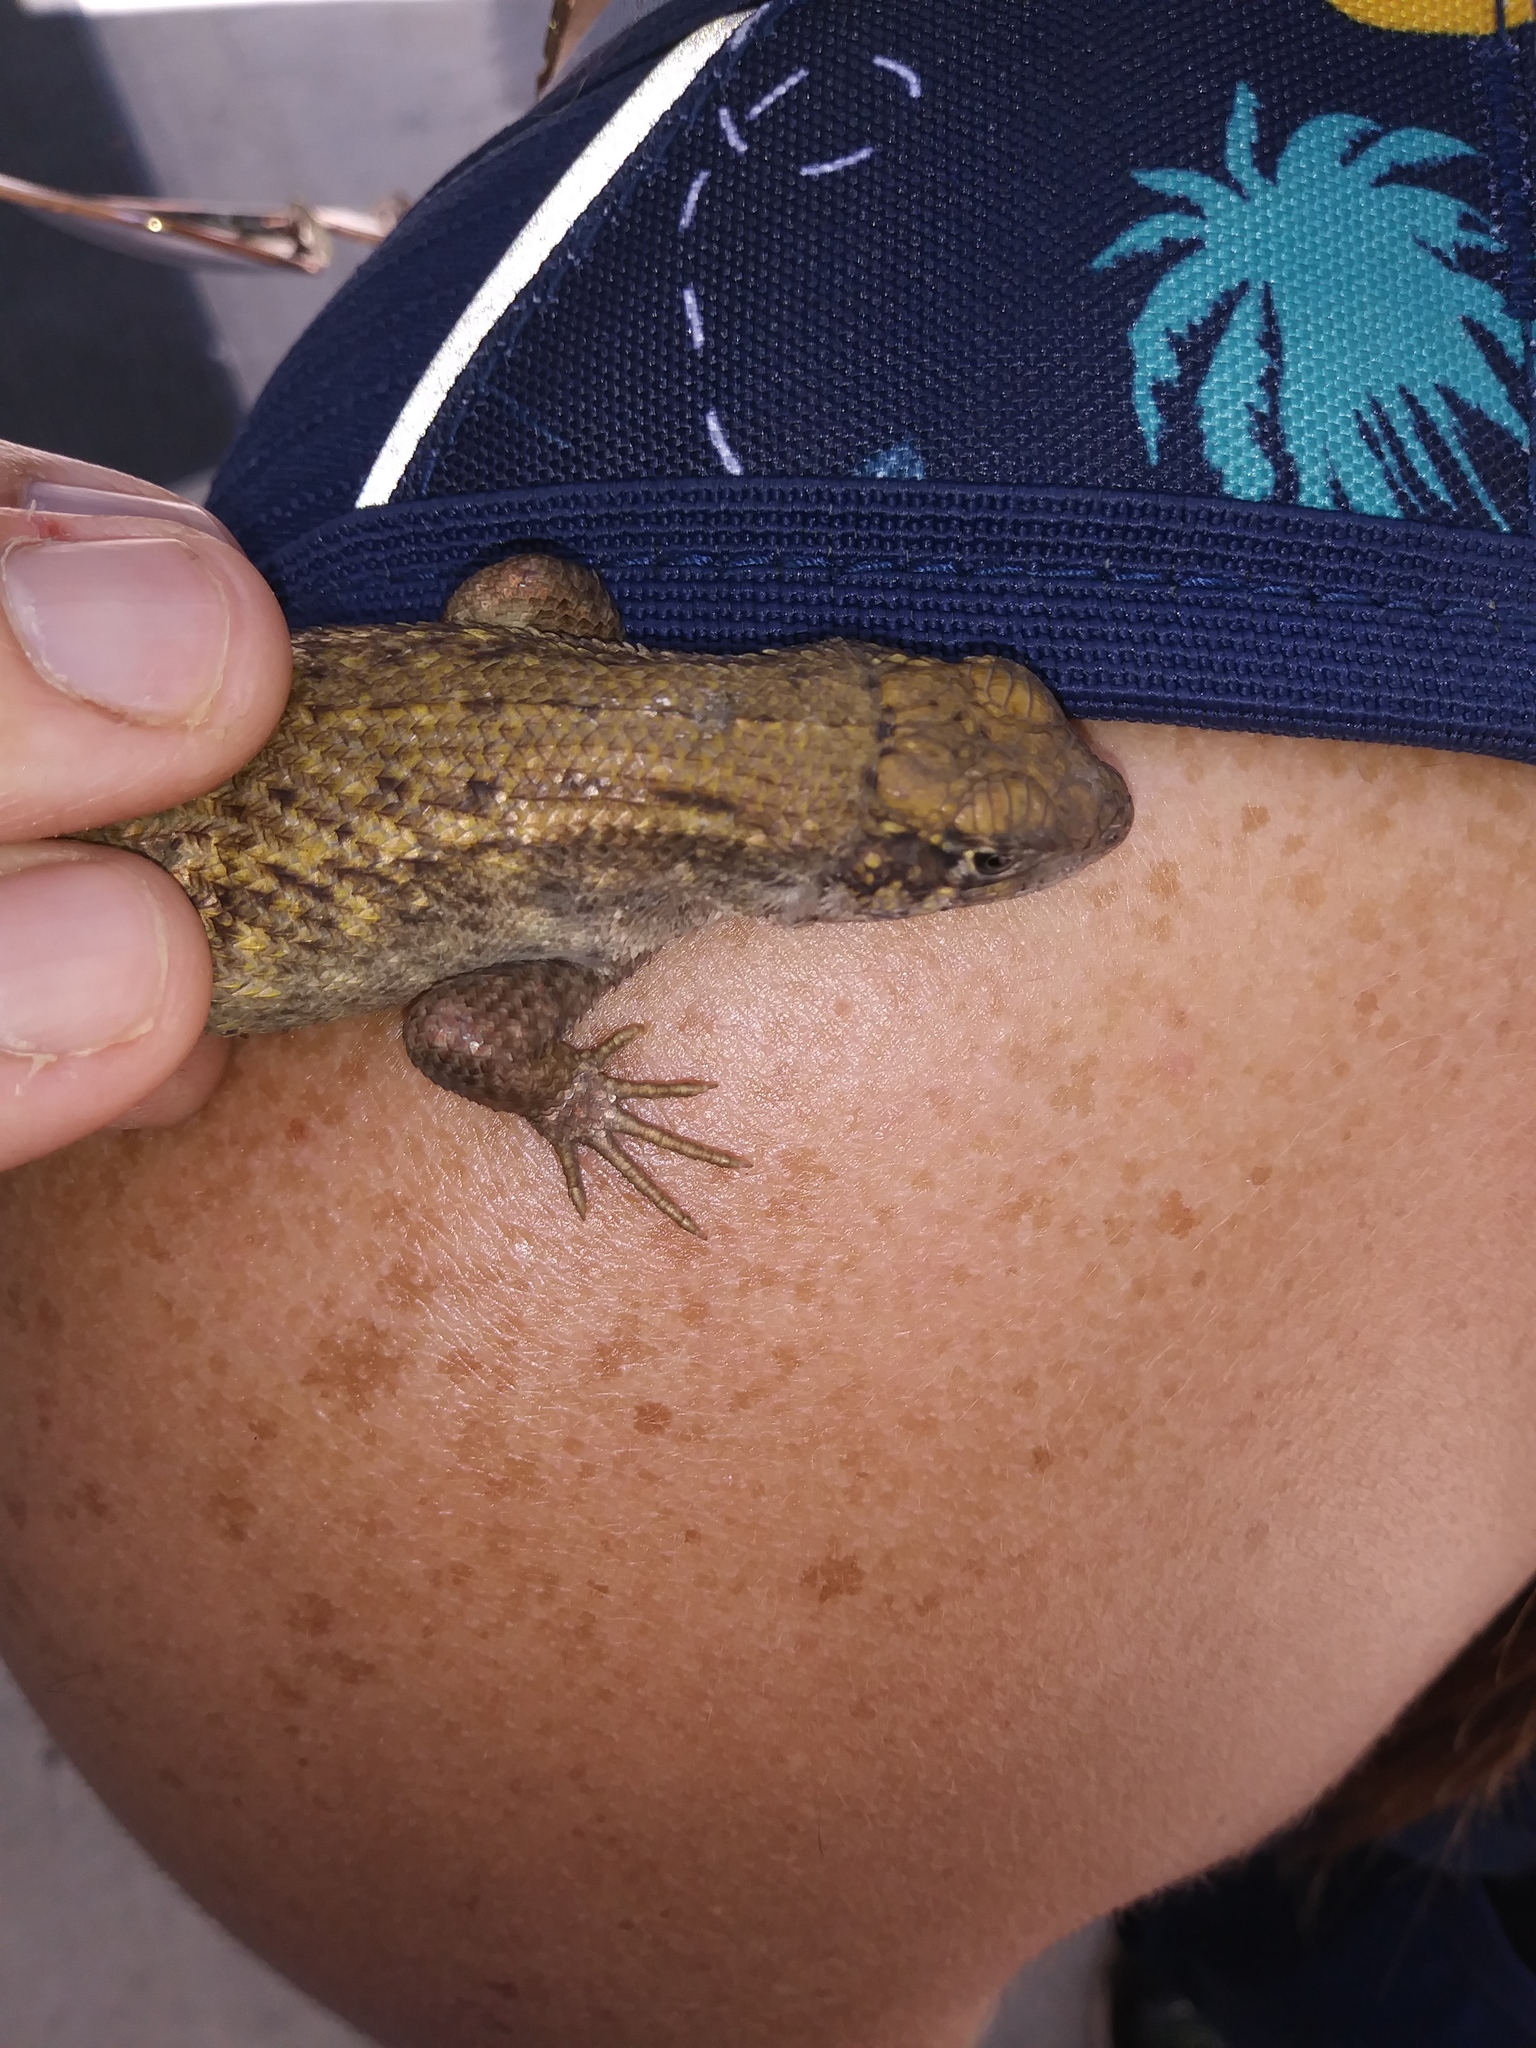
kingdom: Animalia
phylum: Chordata
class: Squamata
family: Leiocephalidae
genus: Leiocephalus
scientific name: Leiocephalus carinatus
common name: Northern curly-tailed lizard
